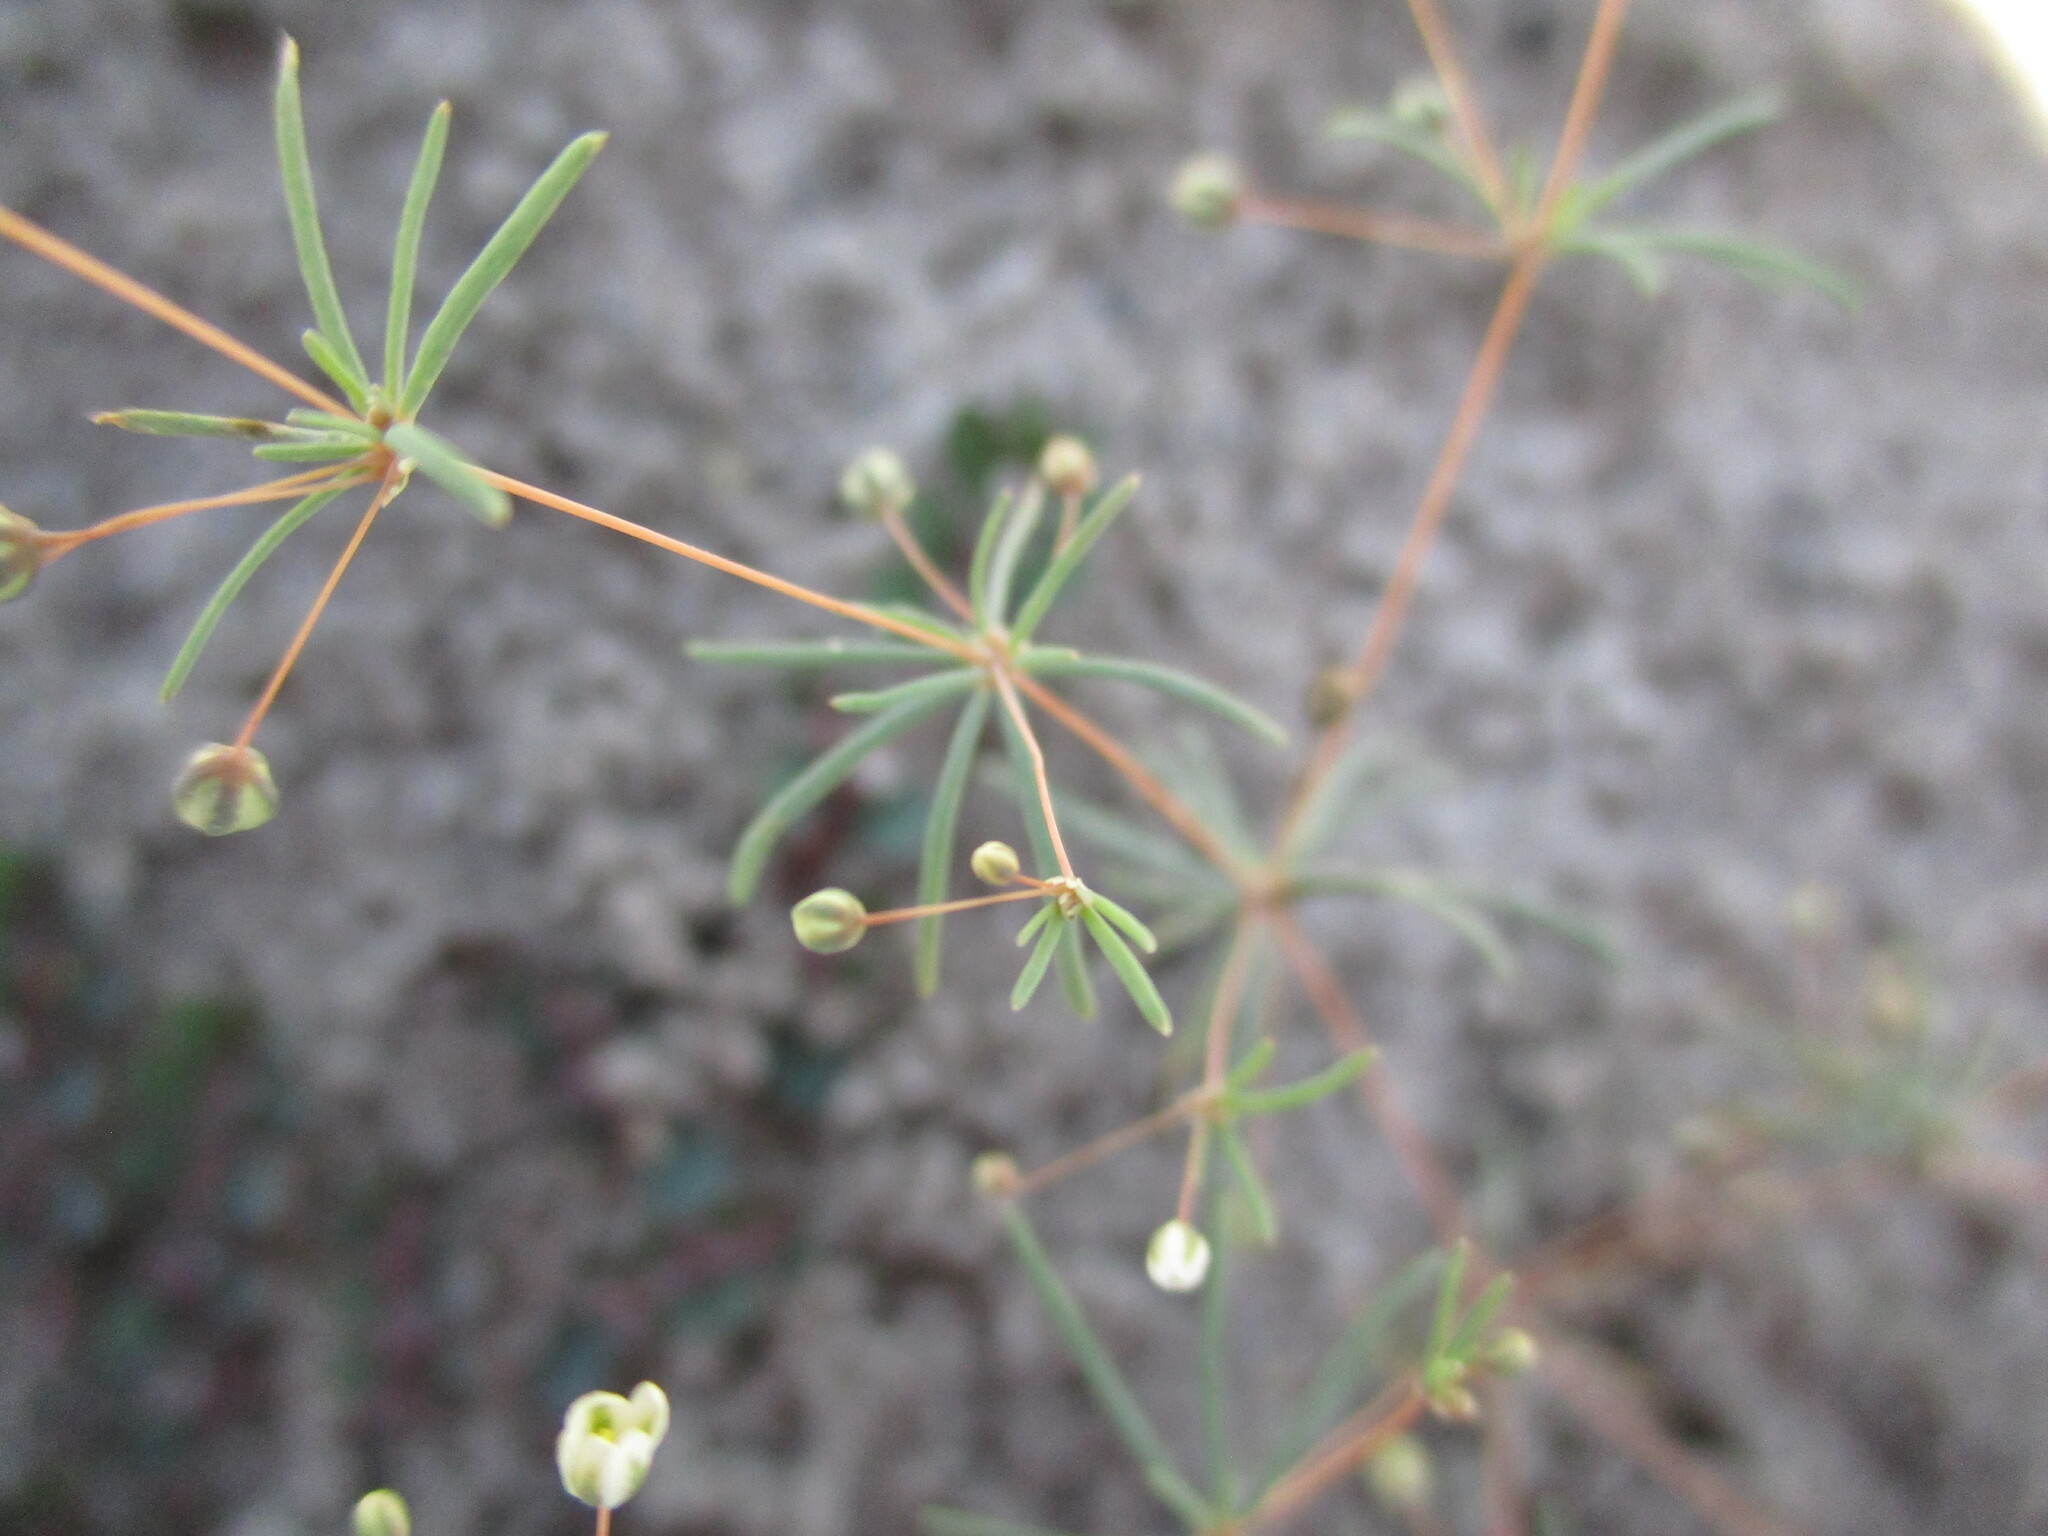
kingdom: Plantae
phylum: Tracheophyta
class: Magnoliopsida
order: Caryophyllales
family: Molluginaceae
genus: Hypertelis
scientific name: Hypertelis cerviana
